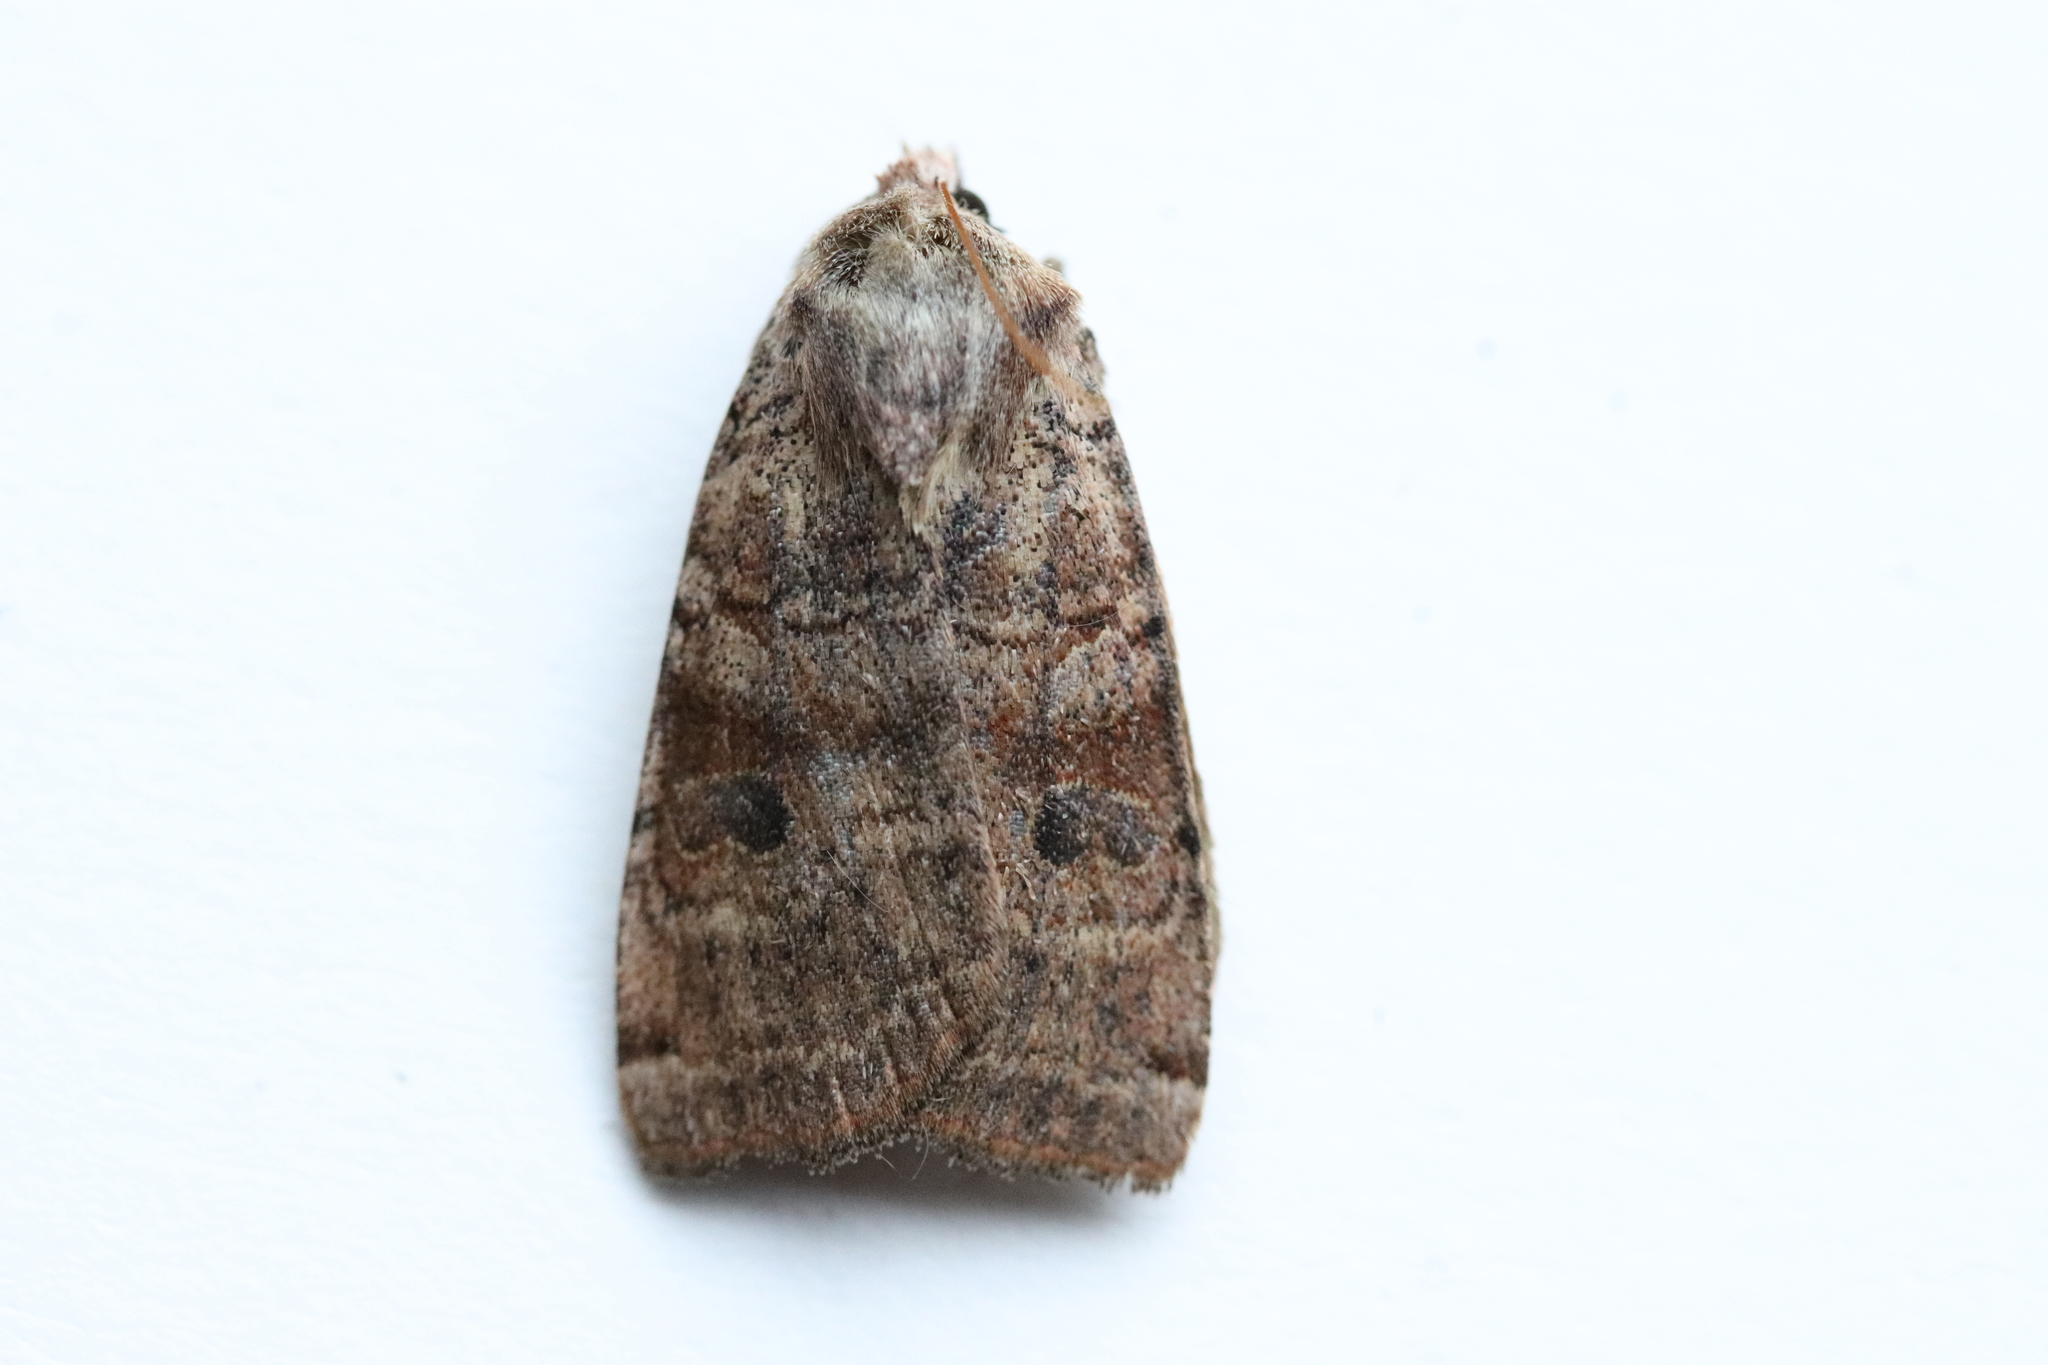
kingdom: Animalia
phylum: Arthropoda
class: Insecta
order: Lepidoptera
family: Noctuidae
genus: Xestia
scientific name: Xestia smithii
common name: Smith's dart
